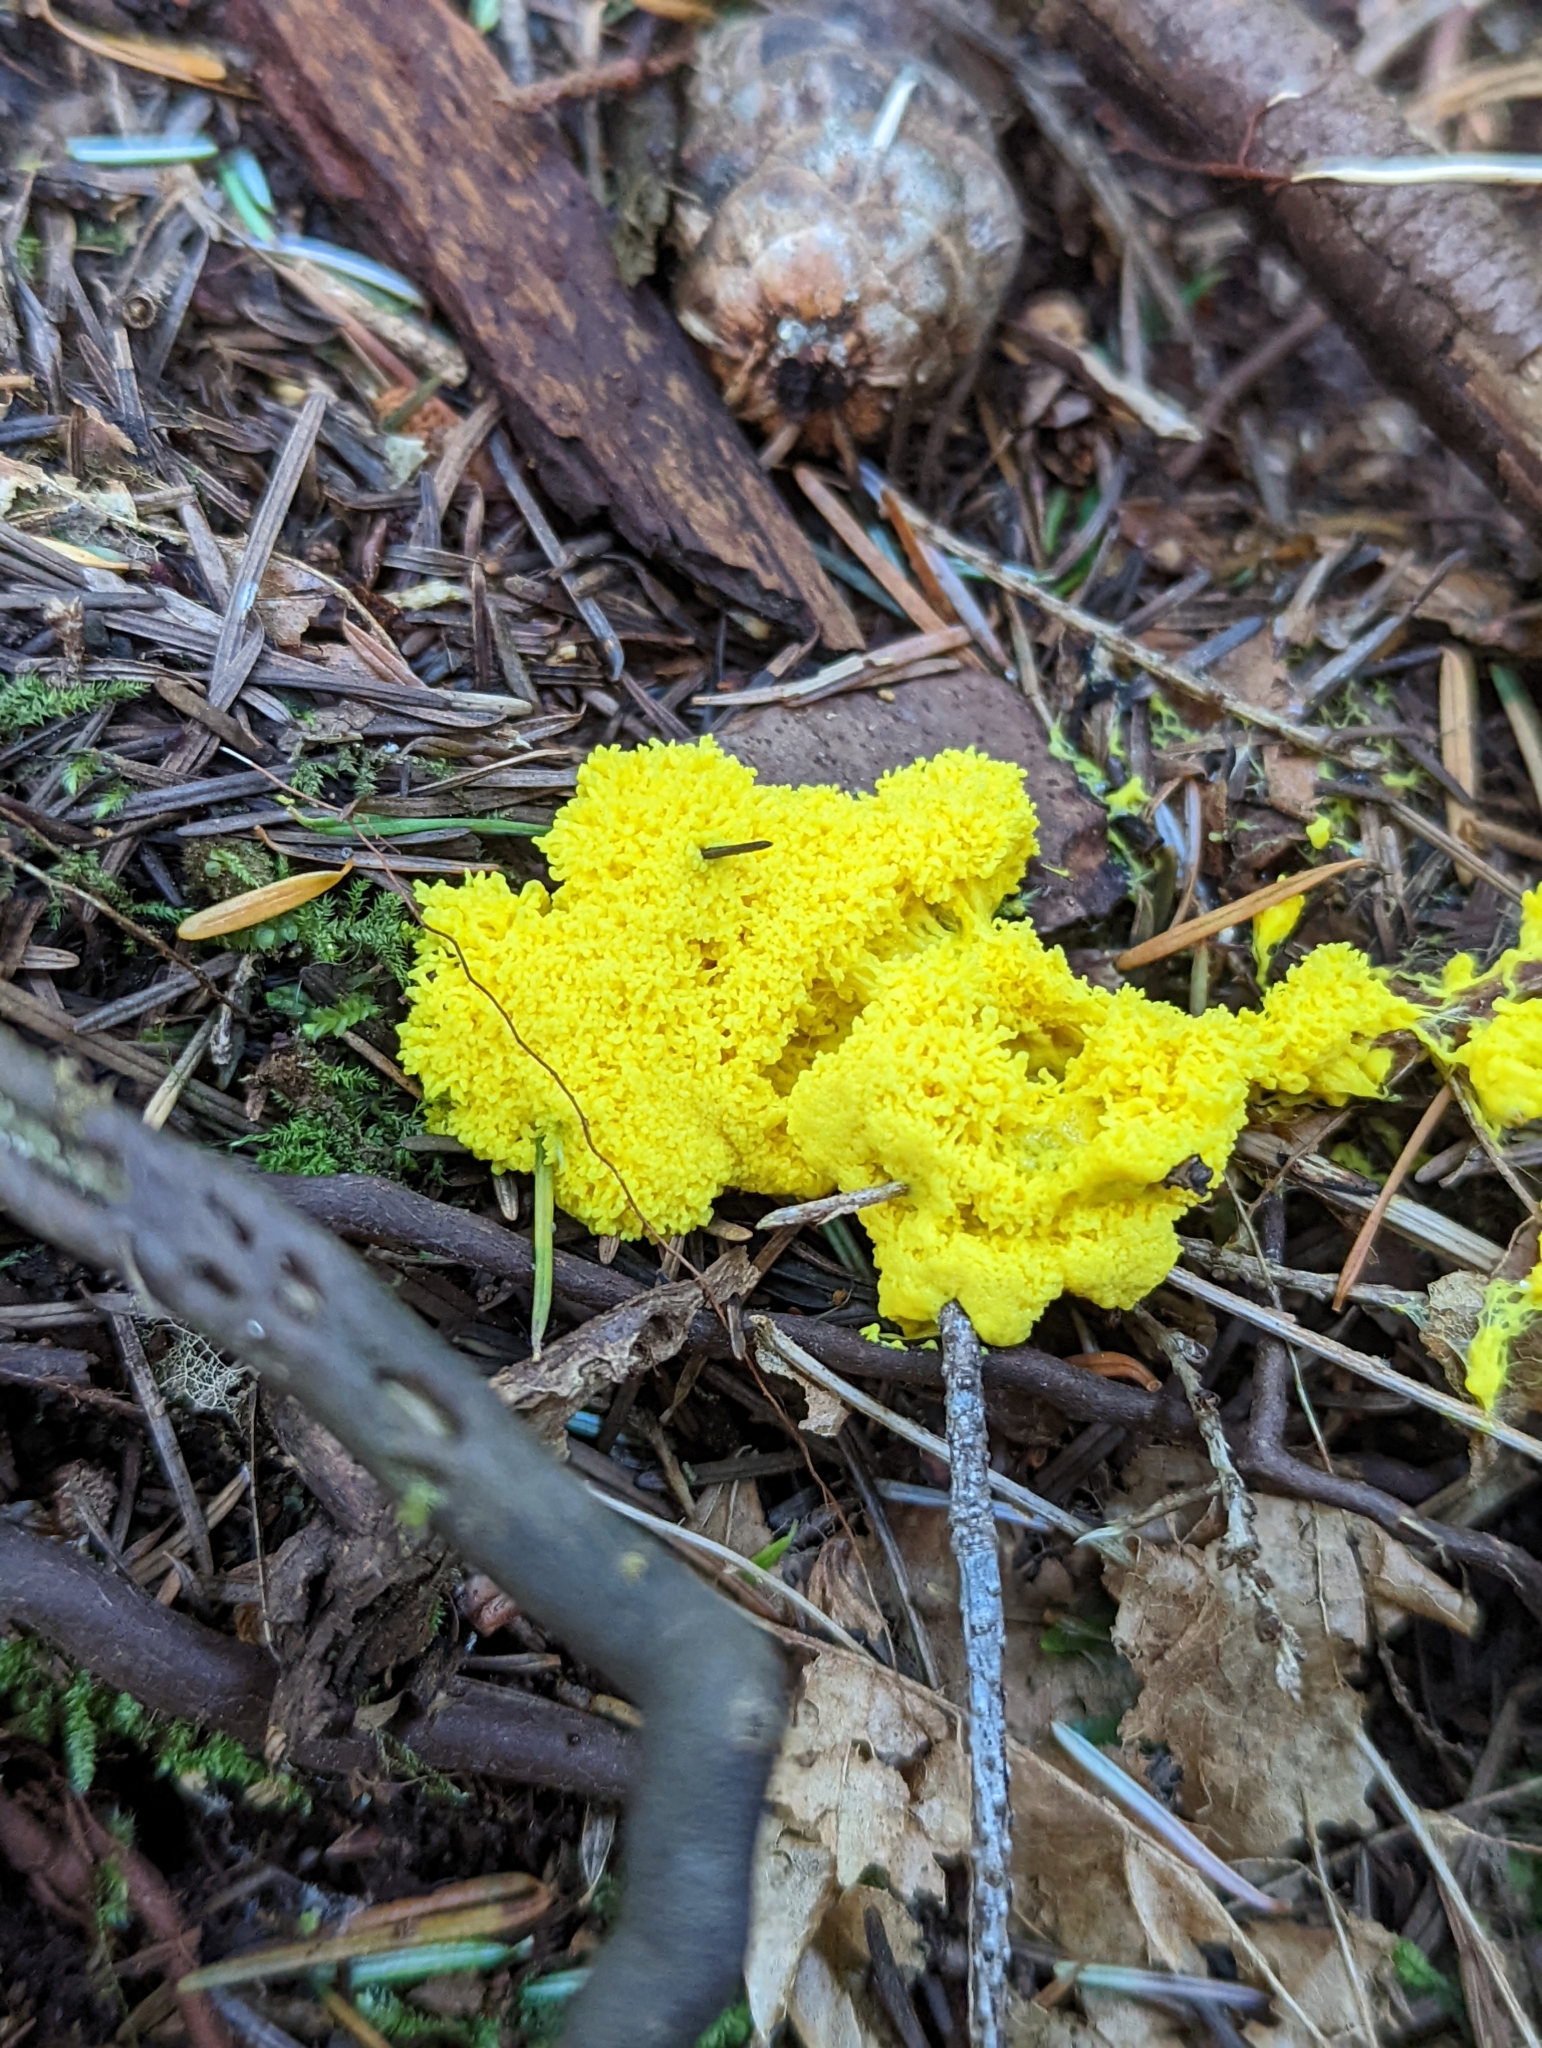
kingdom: Protozoa
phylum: Mycetozoa
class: Myxomycetes
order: Physarales
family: Physaraceae
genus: Fuligo
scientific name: Fuligo septica
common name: Dog vomit slime mold
